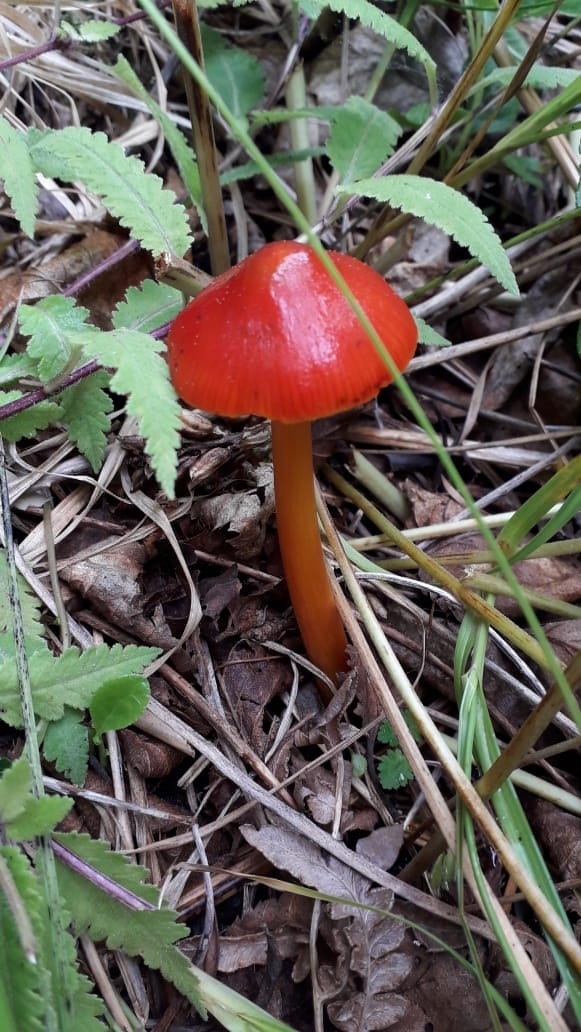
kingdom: Fungi
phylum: Basidiomycota
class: Agaricomycetes
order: Agaricales
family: Hygrophoraceae
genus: Hygrocybe
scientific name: Hygrocybe conica
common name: Blackening wax-cap
